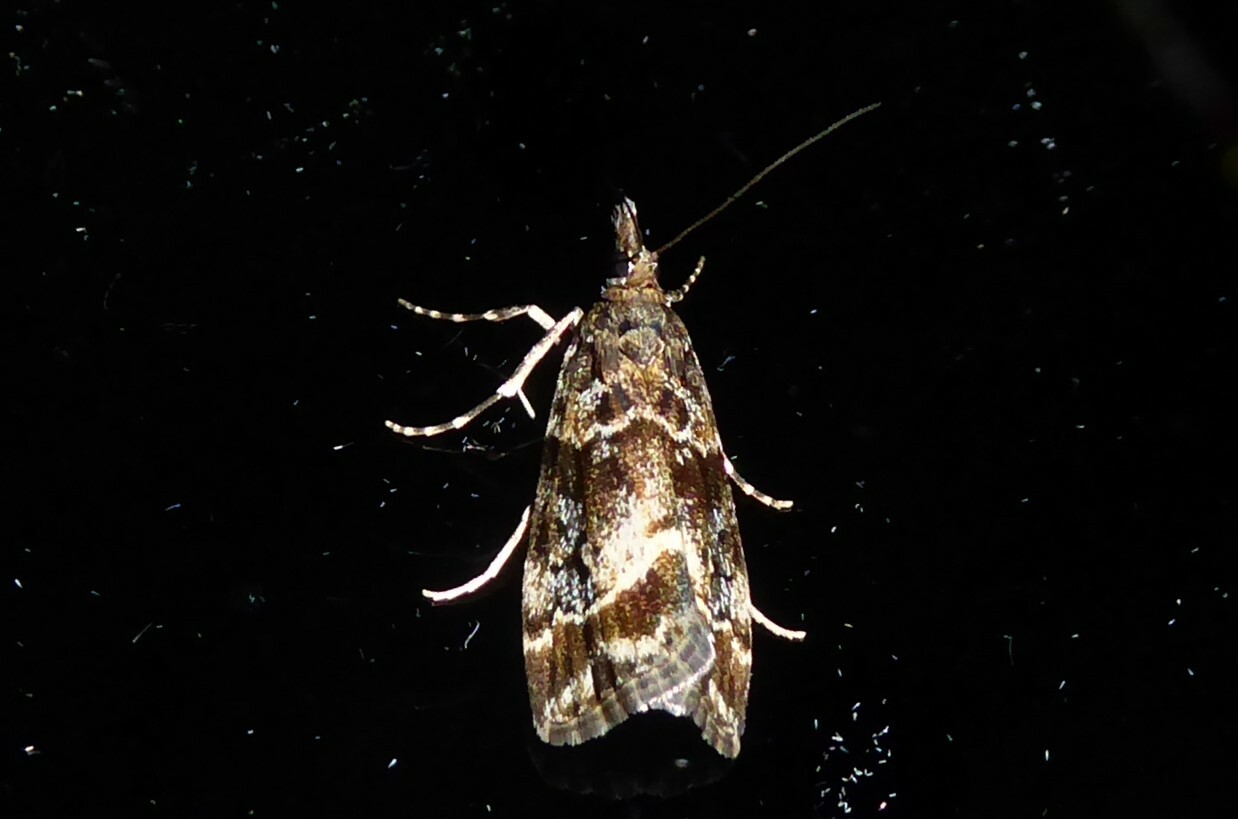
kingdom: Animalia
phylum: Arthropoda
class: Insecta
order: Lepidoptera
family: Crambidae
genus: Eudonia
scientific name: Eudonia legnota
